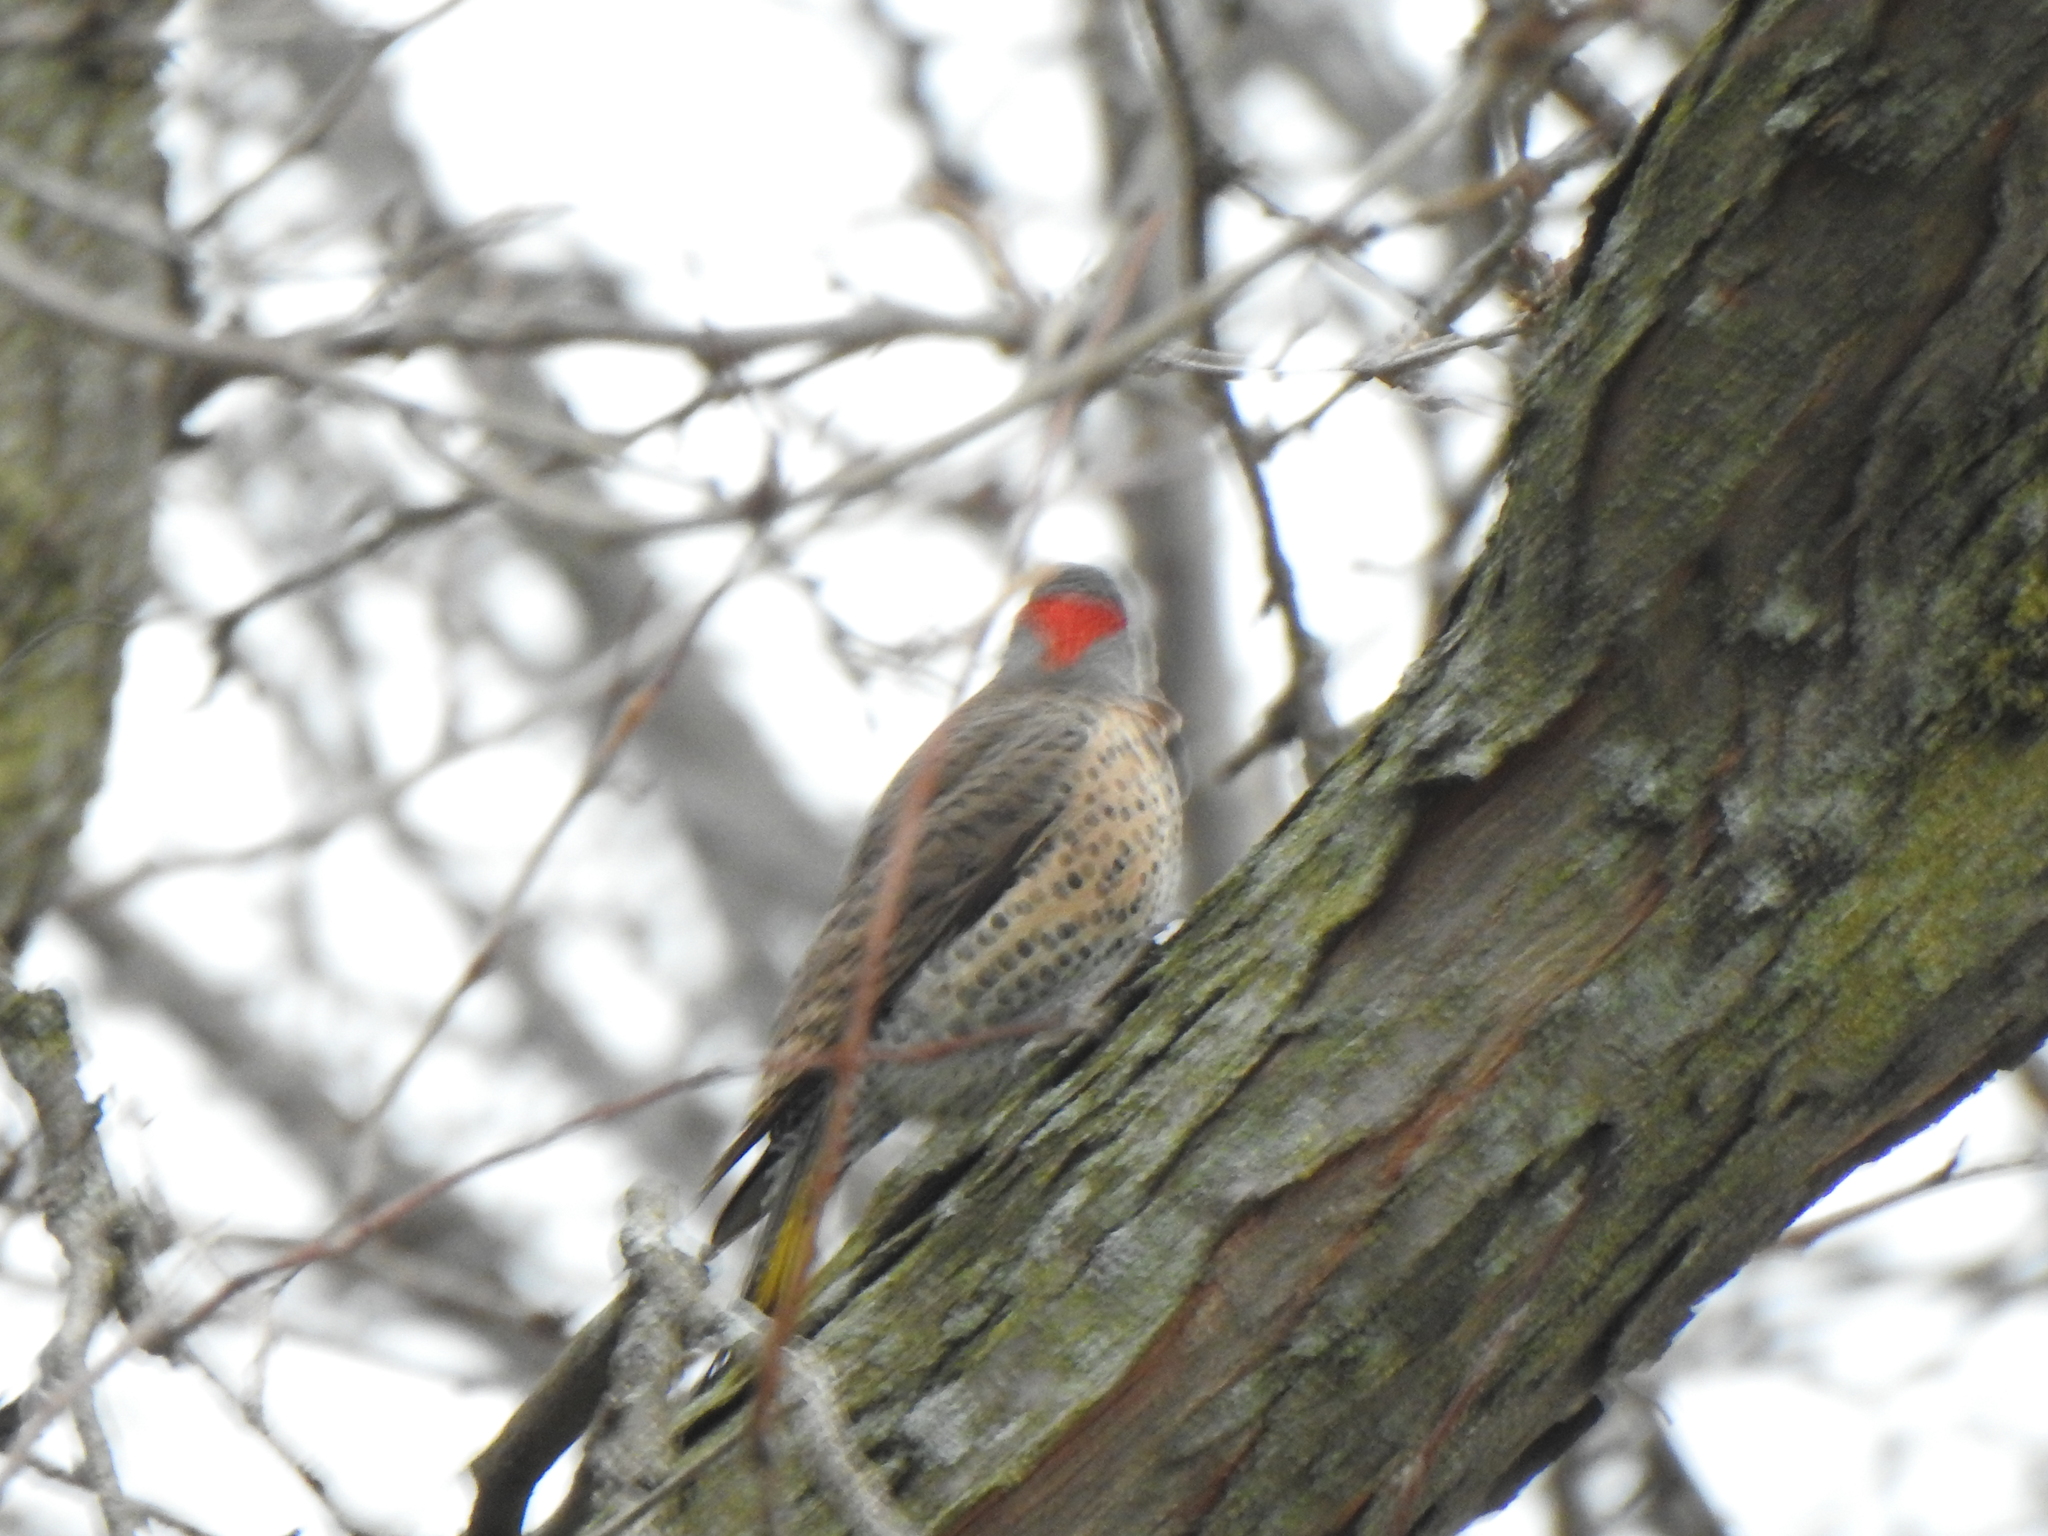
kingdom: Animalia
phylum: Chordata
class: Aves
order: Piciformes
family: Picidae
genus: Colaptes
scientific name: Colaptes auratus
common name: Northern flicker
